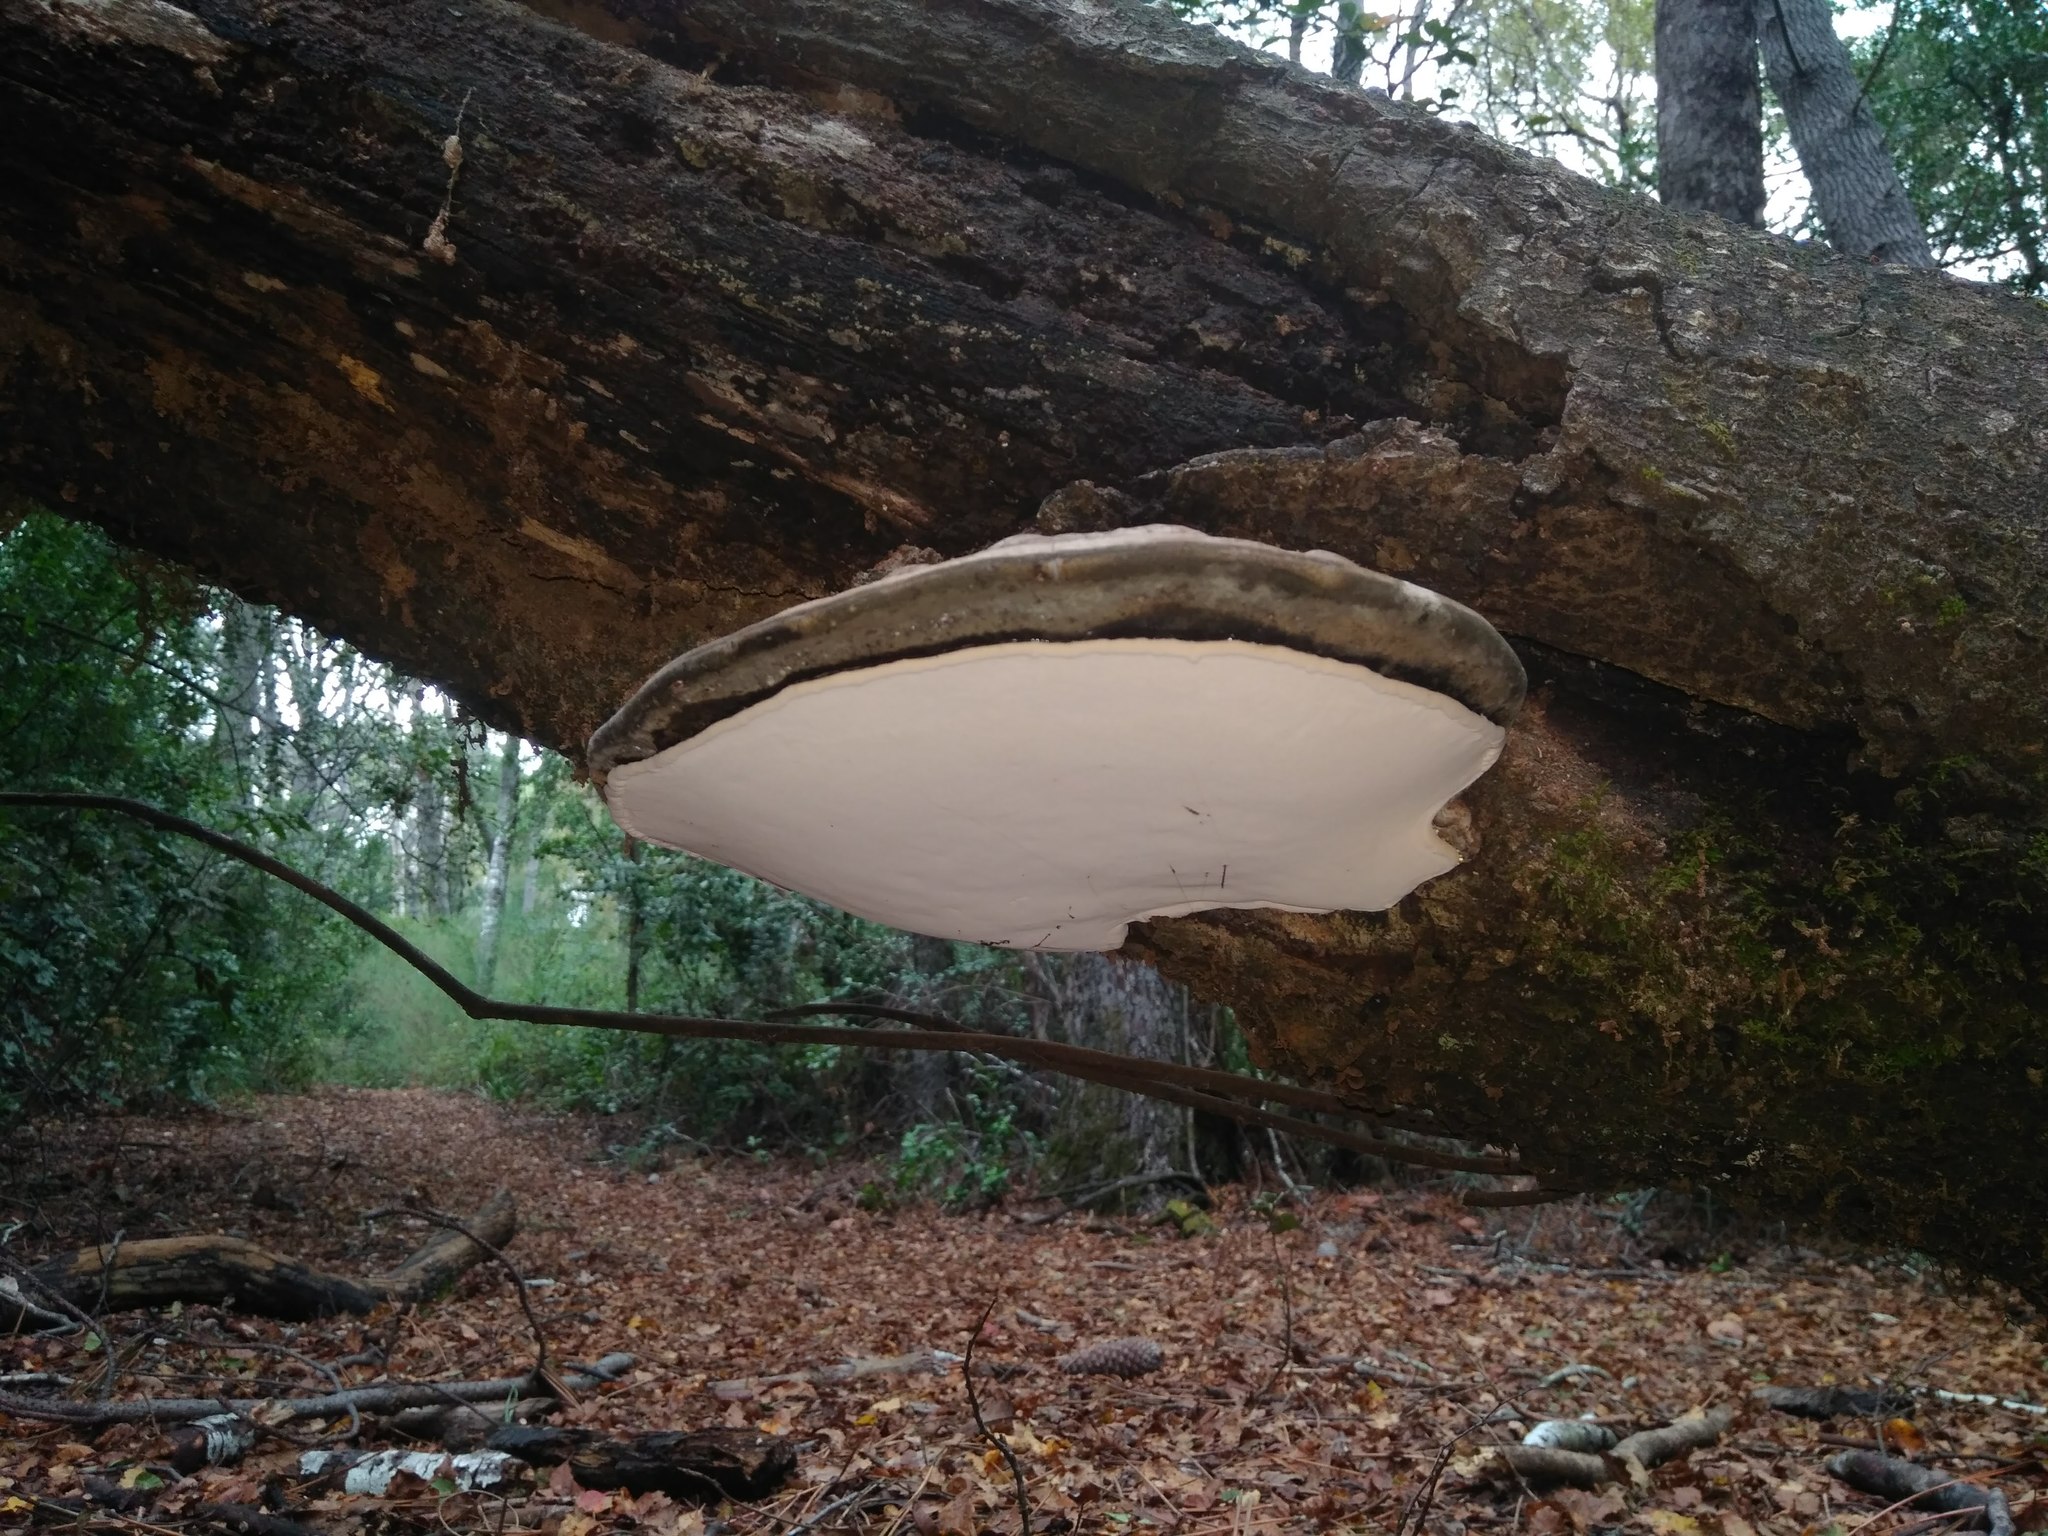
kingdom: Fungi
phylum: Basidiomycota
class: Agaricomycetes
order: Polyporales
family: Polyporaceae
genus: Ganoderma
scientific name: Ganoderma australe
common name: Southern bracket
